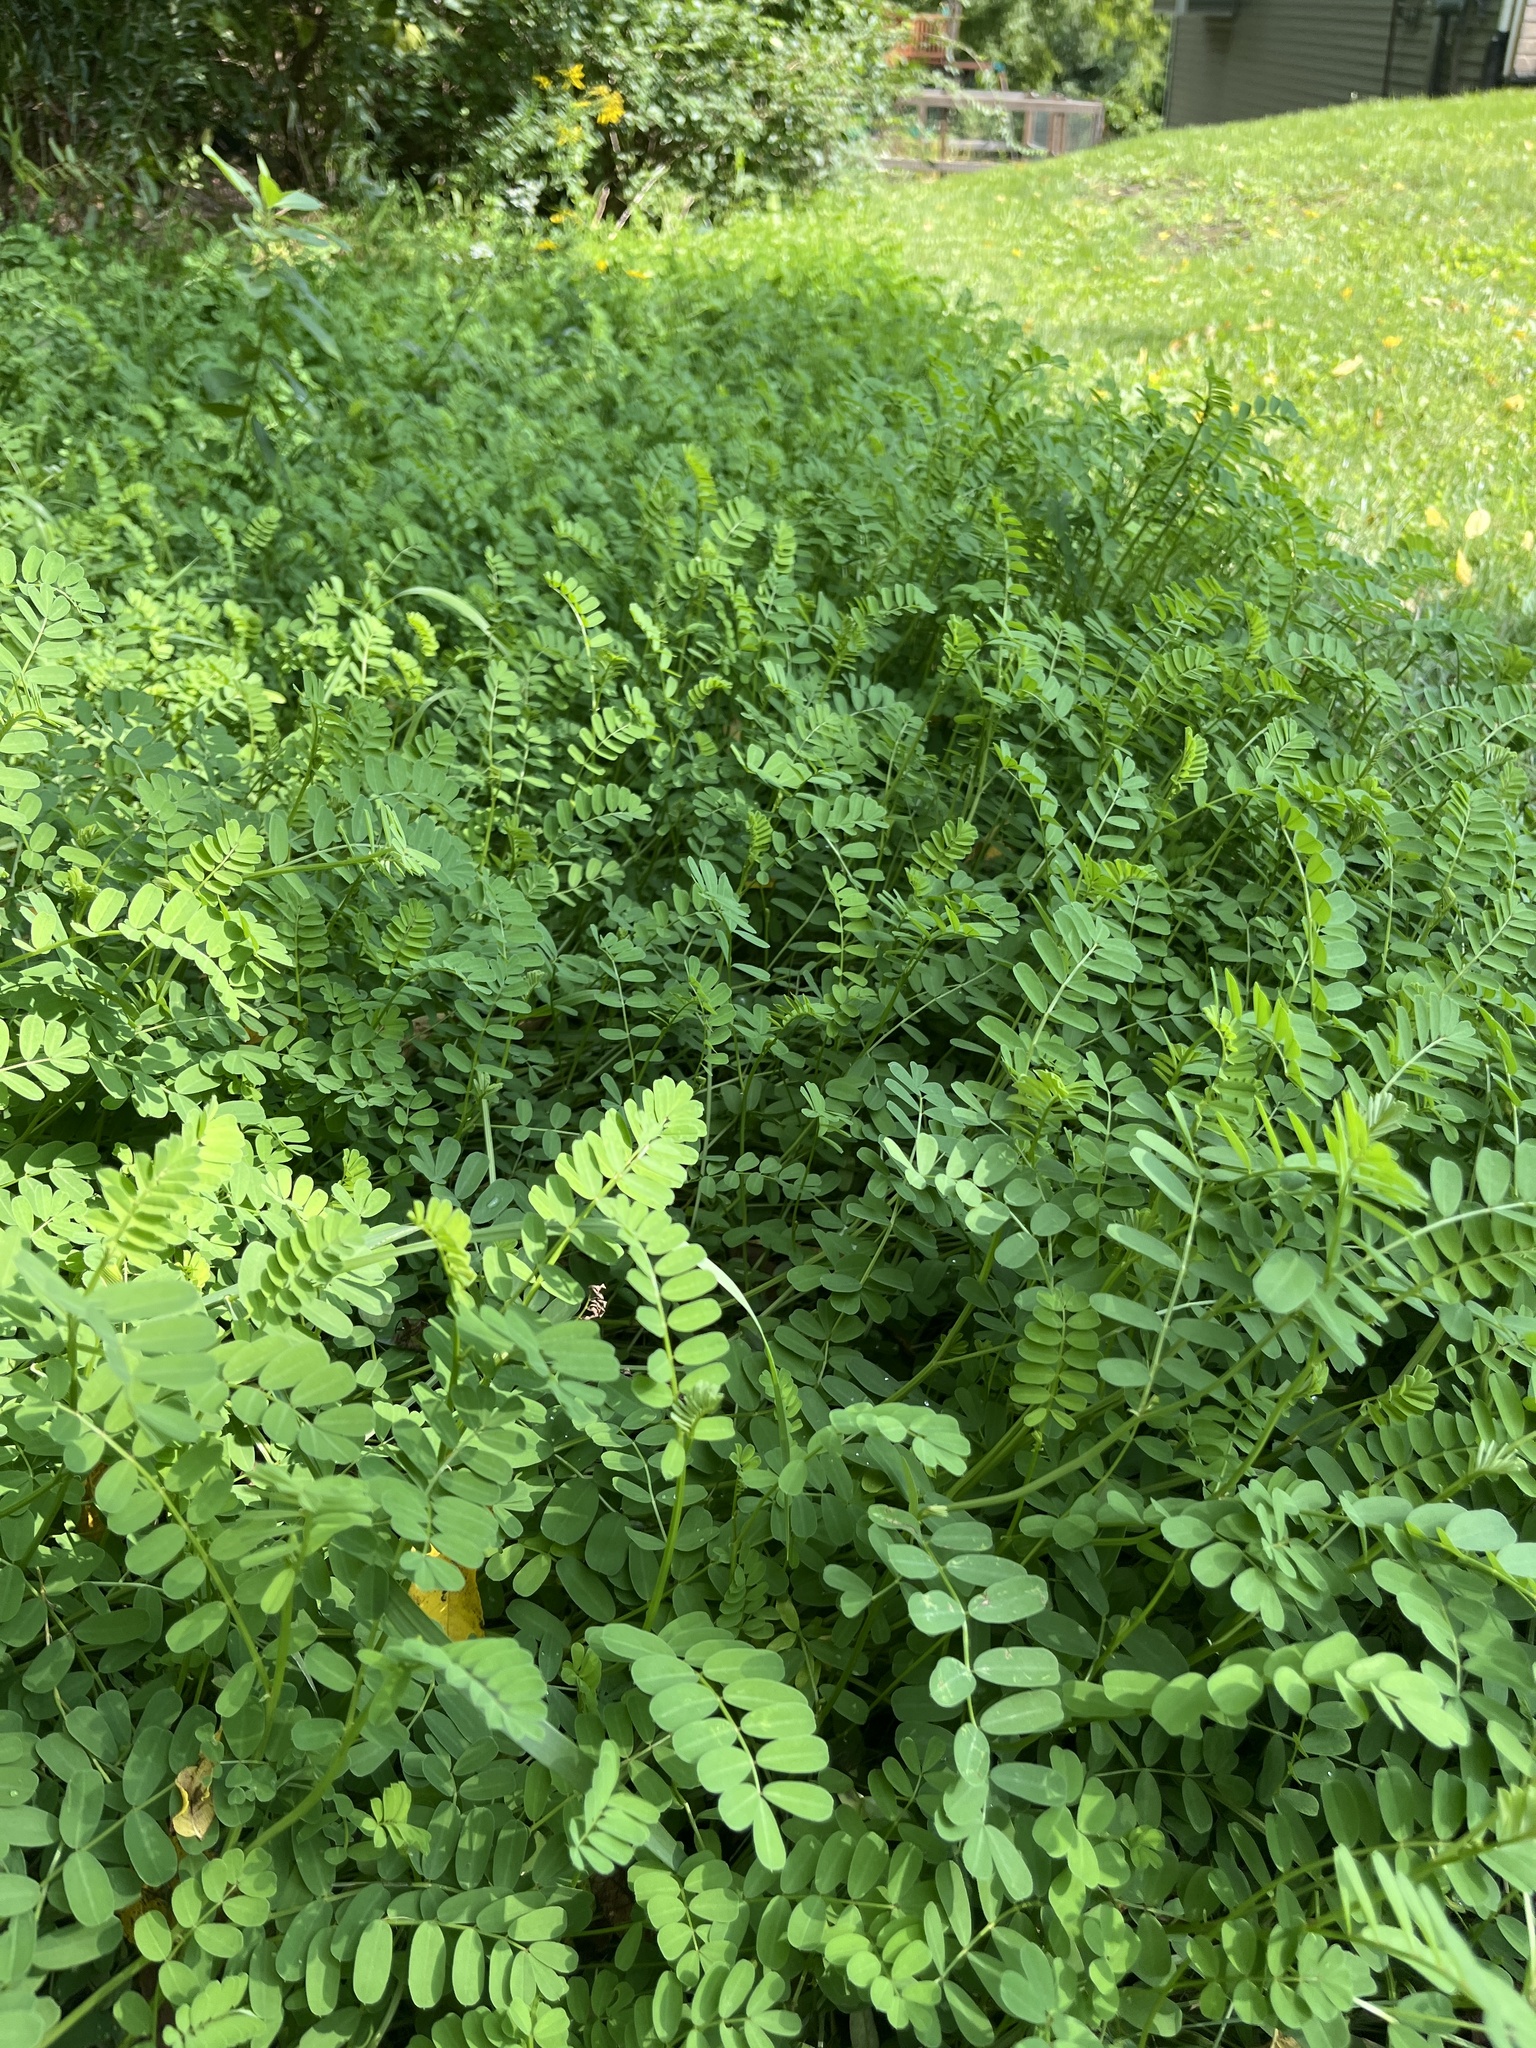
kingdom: Plantae
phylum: Tracheophyta
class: Magnoliopsida
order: Fabales
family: Fabaceae
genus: Coronilla
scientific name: Coronilla varia
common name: Crownvetch
